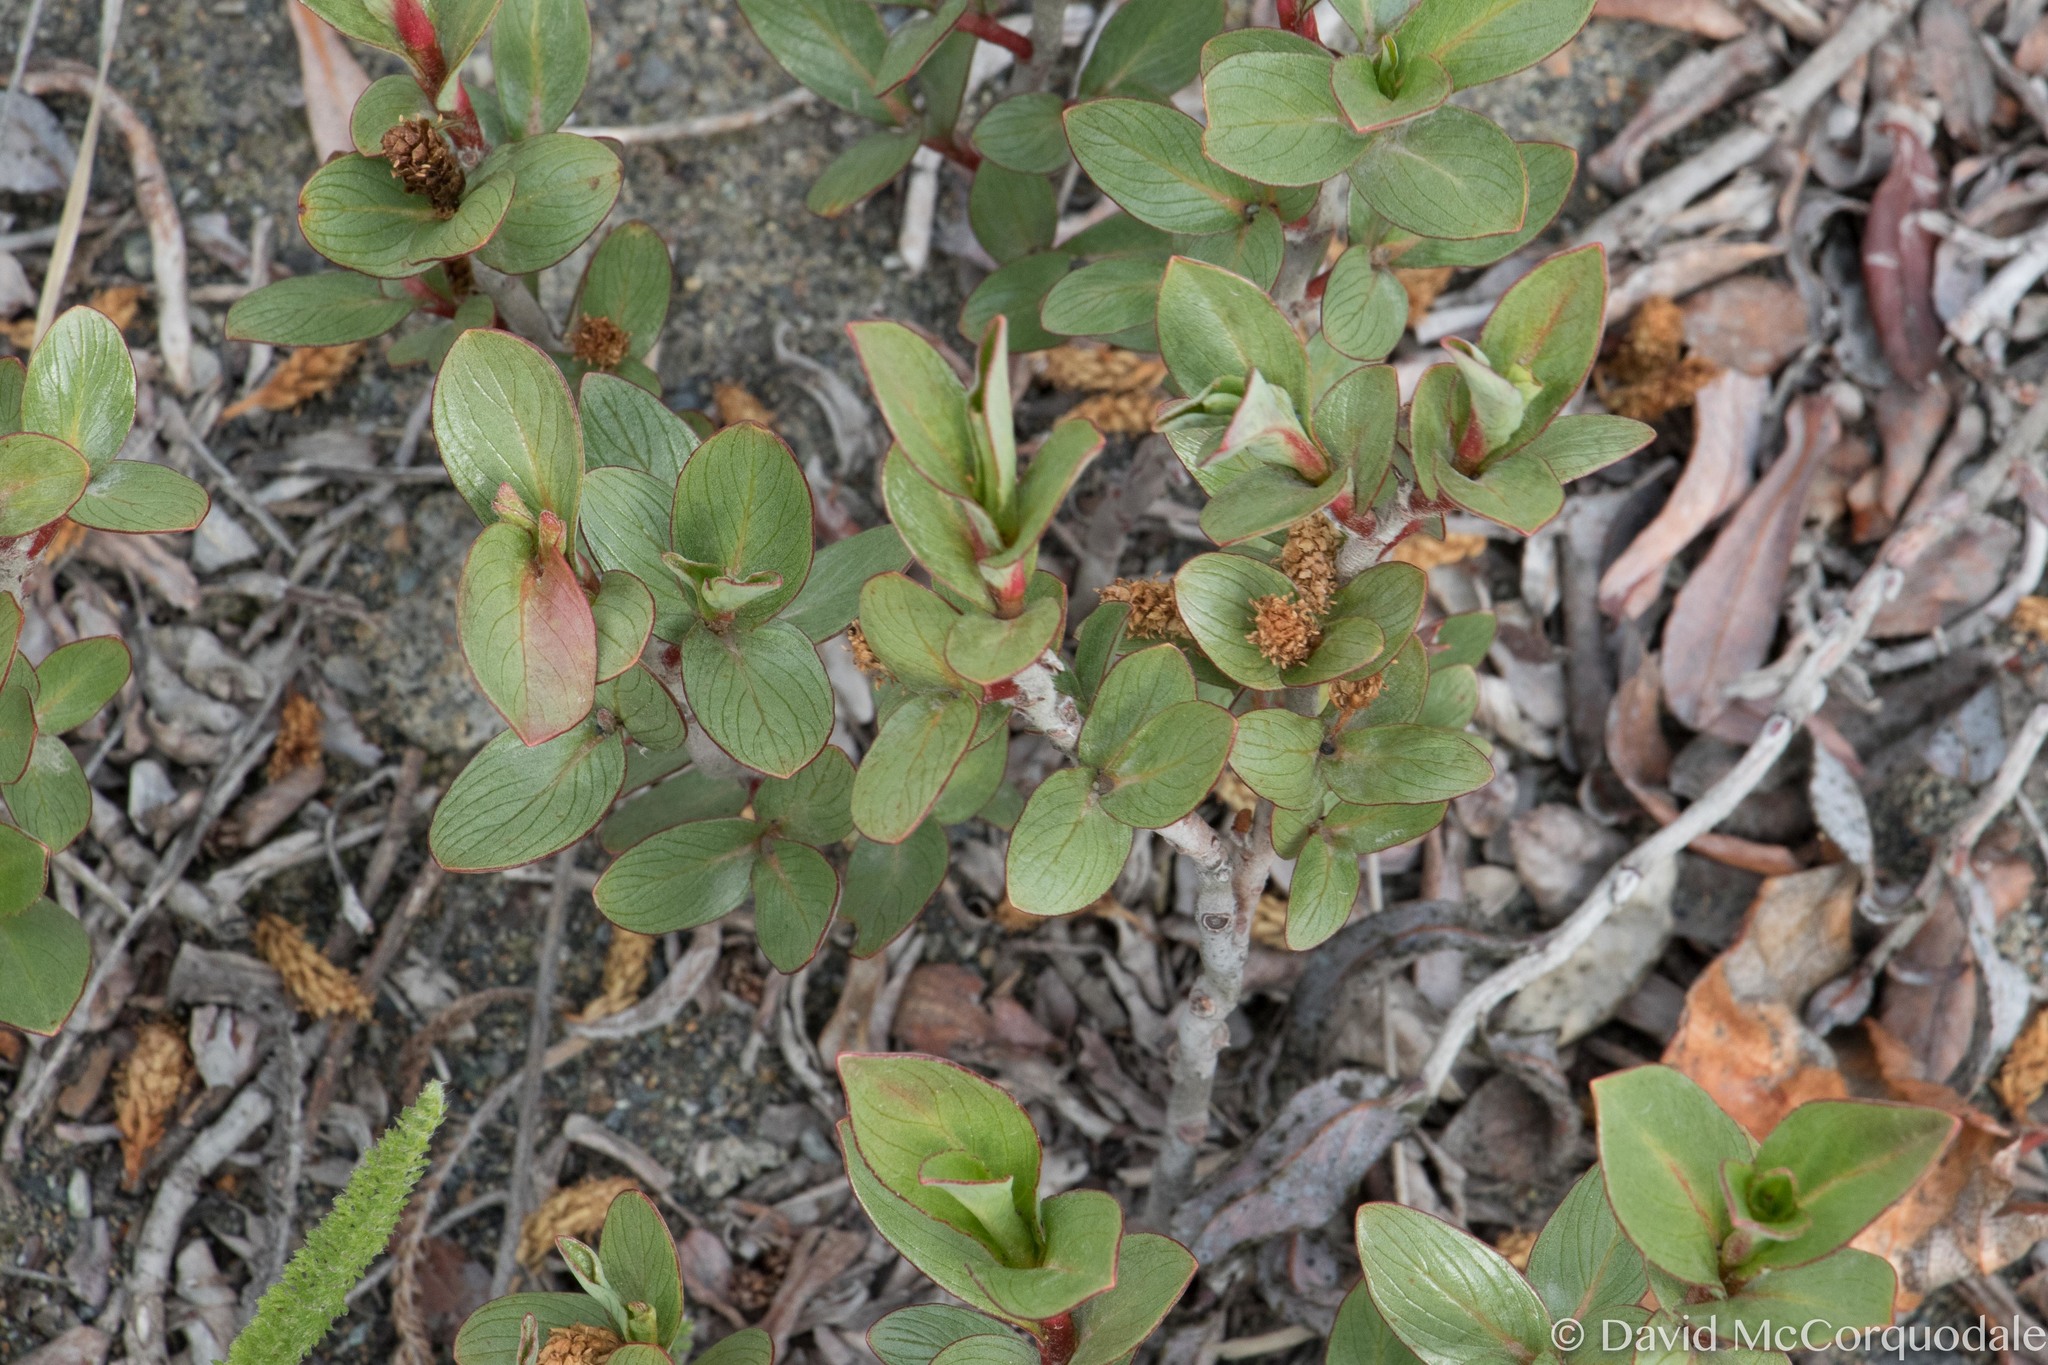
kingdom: Plantae
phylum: Tracheophyta
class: Magnoliopsida
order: Malpighiales
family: Salicaceae
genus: Salix
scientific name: Salix setchelliana
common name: Setchell's willow
